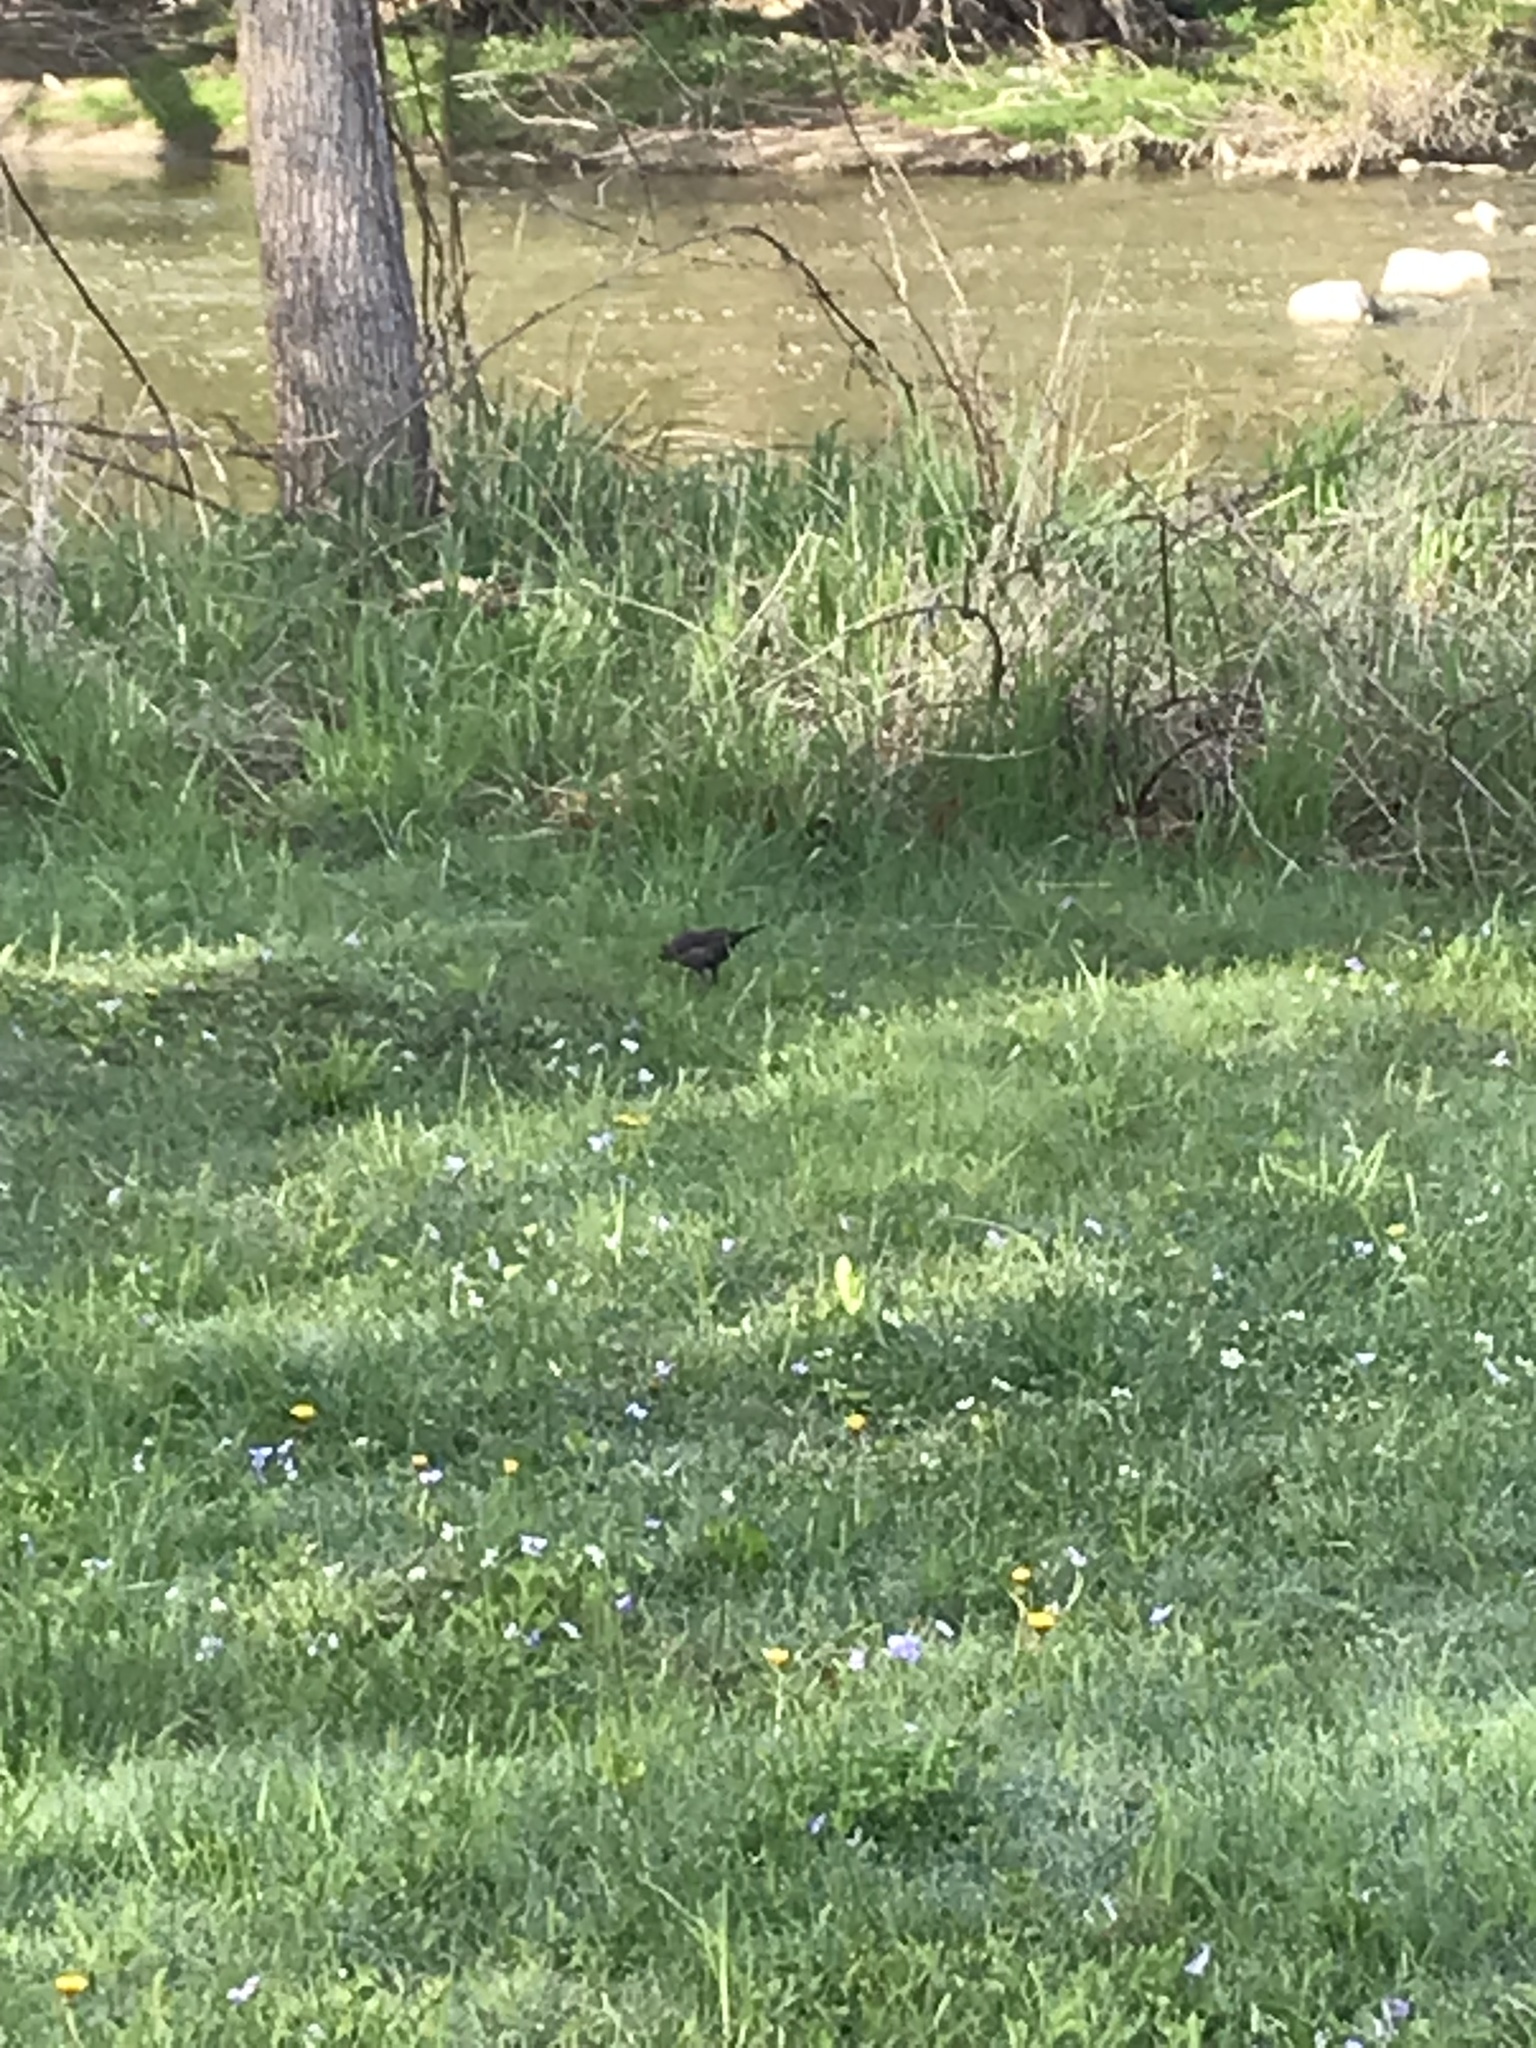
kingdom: Animalia
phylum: Chordata
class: Aves
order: Passeriformes
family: Mimidae
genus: Dumetella
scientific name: Dumetella carolinensis
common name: Gray catbird
